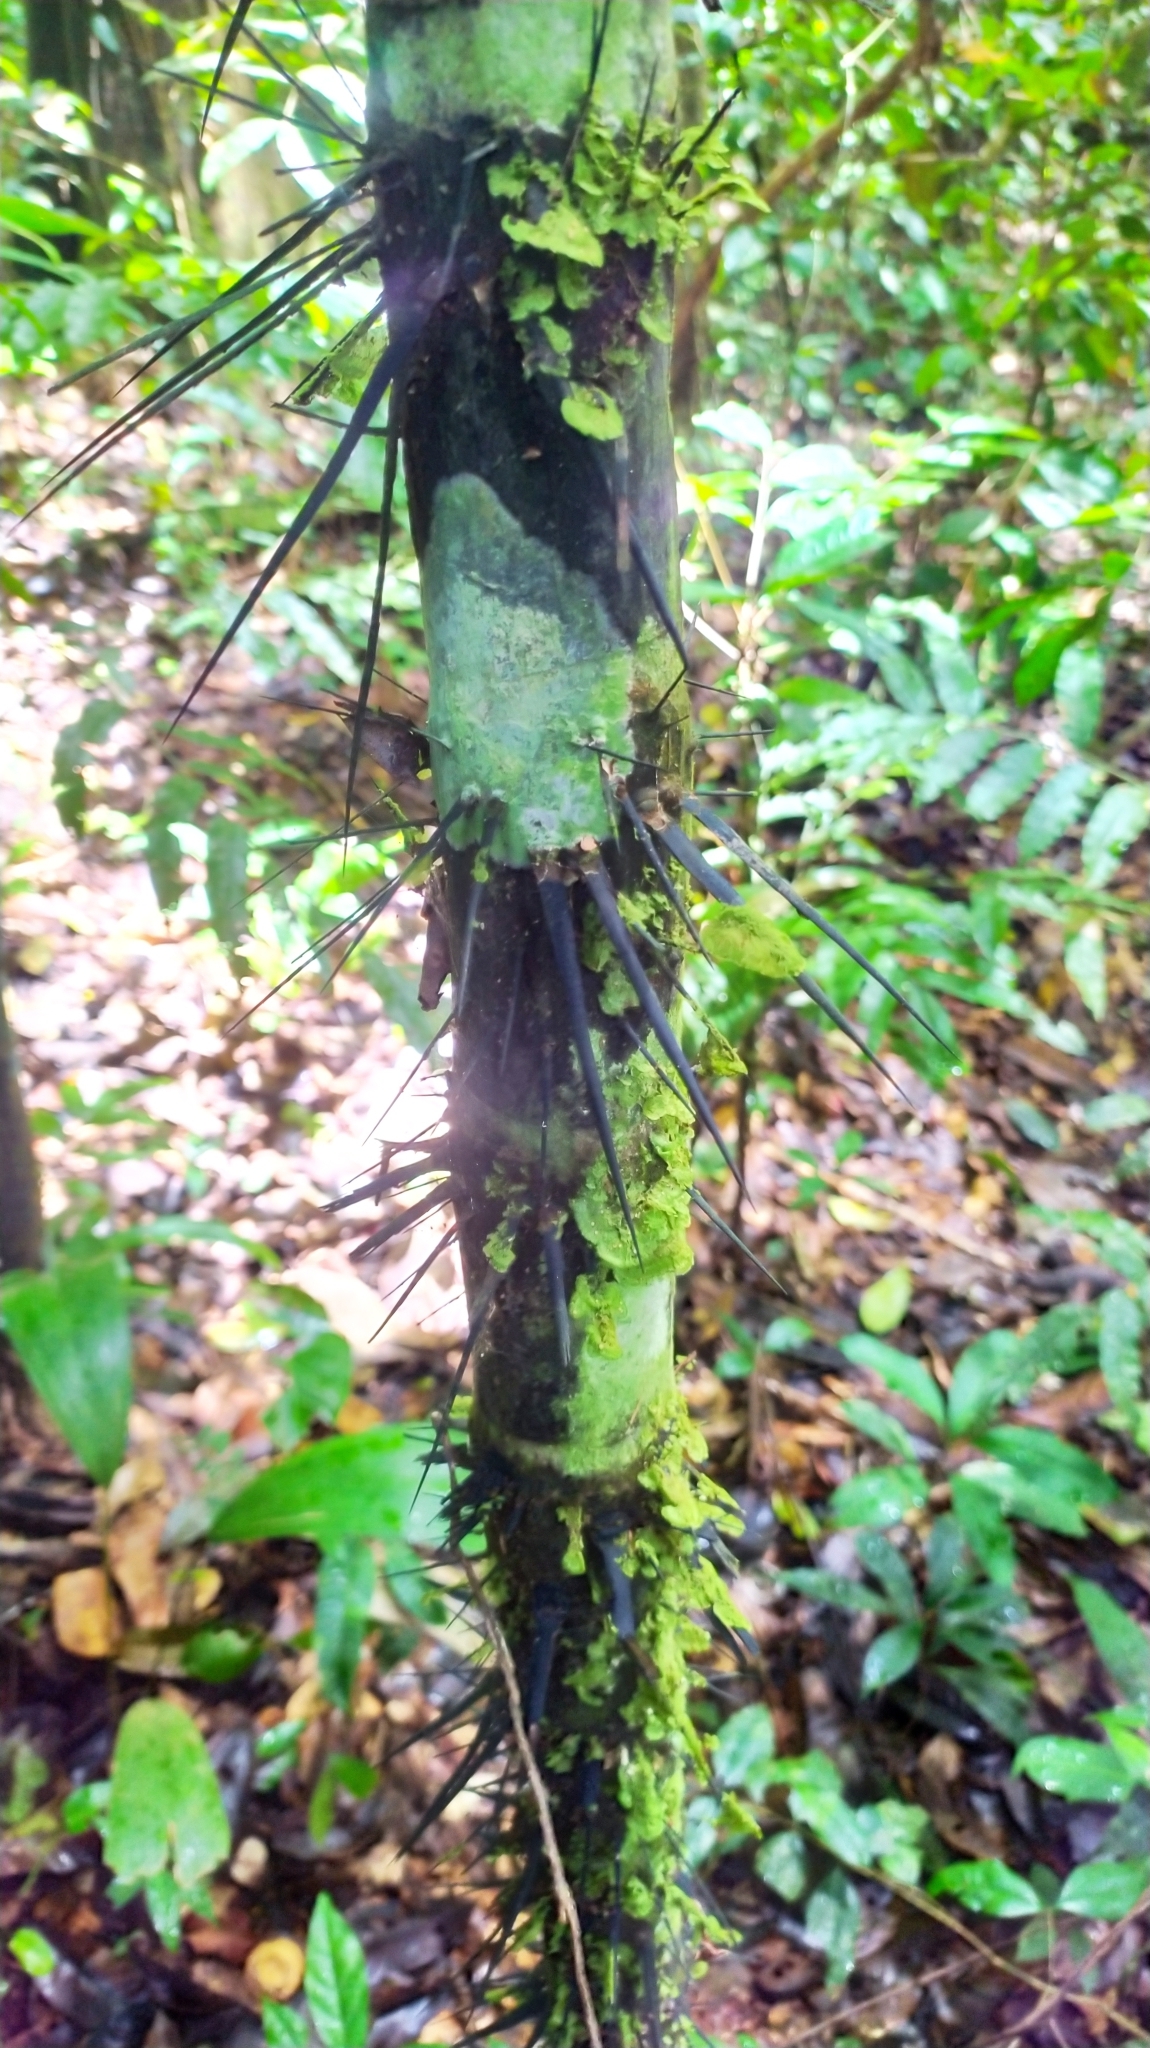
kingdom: Plantae
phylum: Tracheophyta
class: Liliopsida
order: Arecales
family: Arecaceae
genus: Astrocaryum
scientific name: Astrocaryum aculeatum
